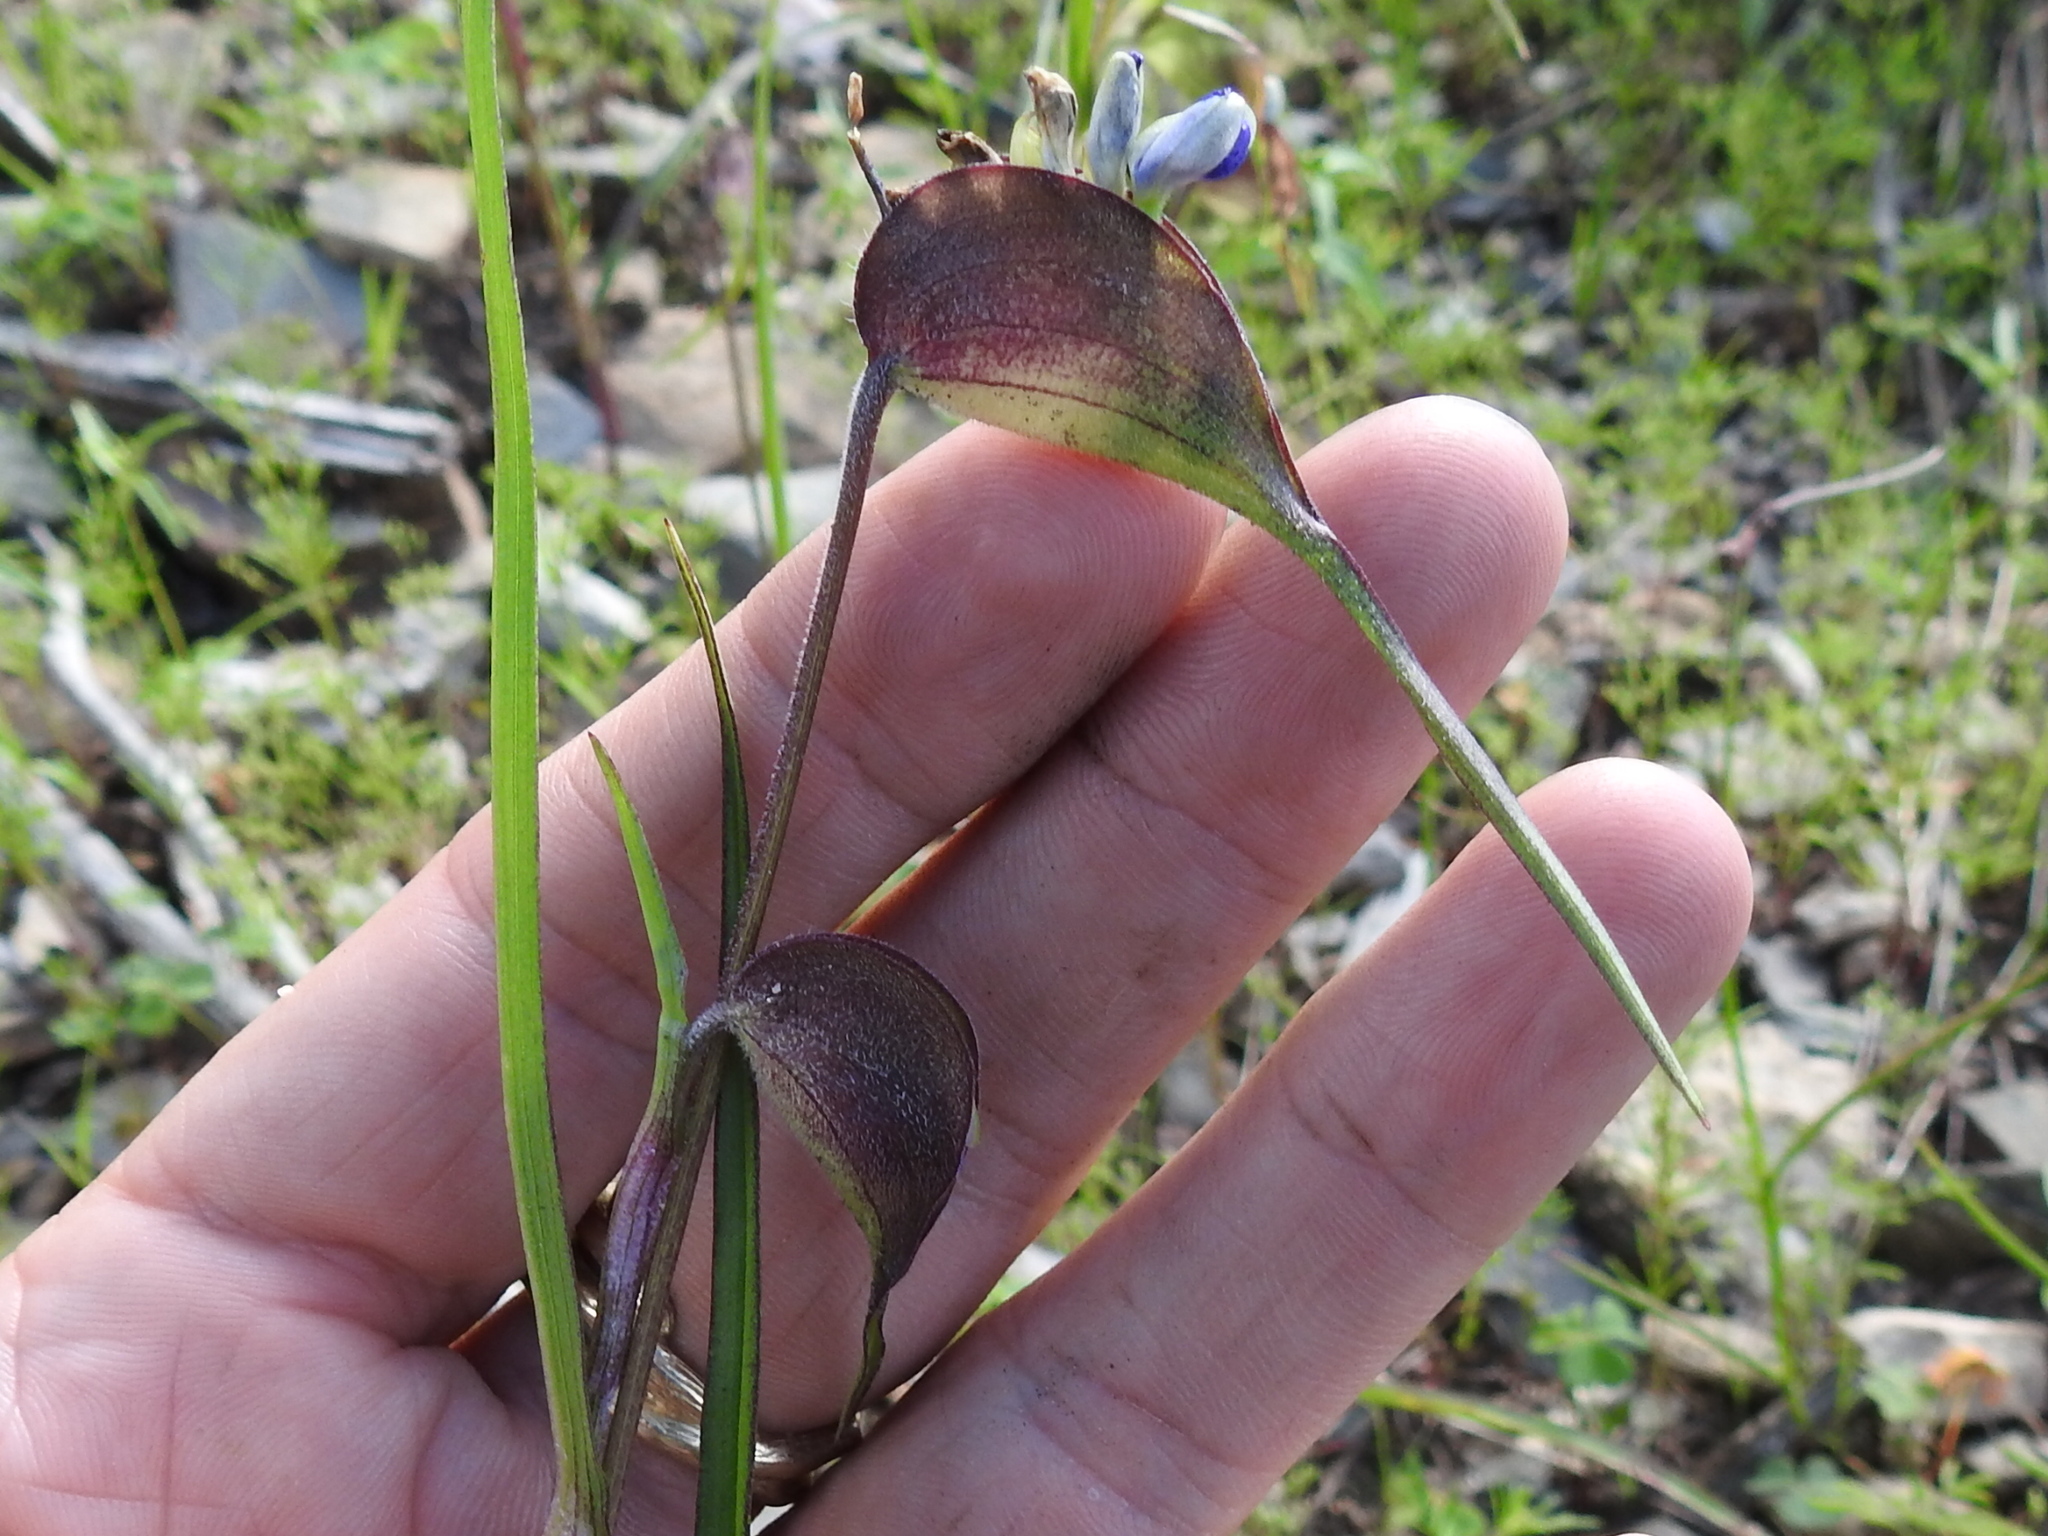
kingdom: Plantae
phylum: Tracheophyta
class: Liliopsida
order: Commelinales
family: Commelinaceae
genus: Commelina
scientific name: Commelina dianthifolia
